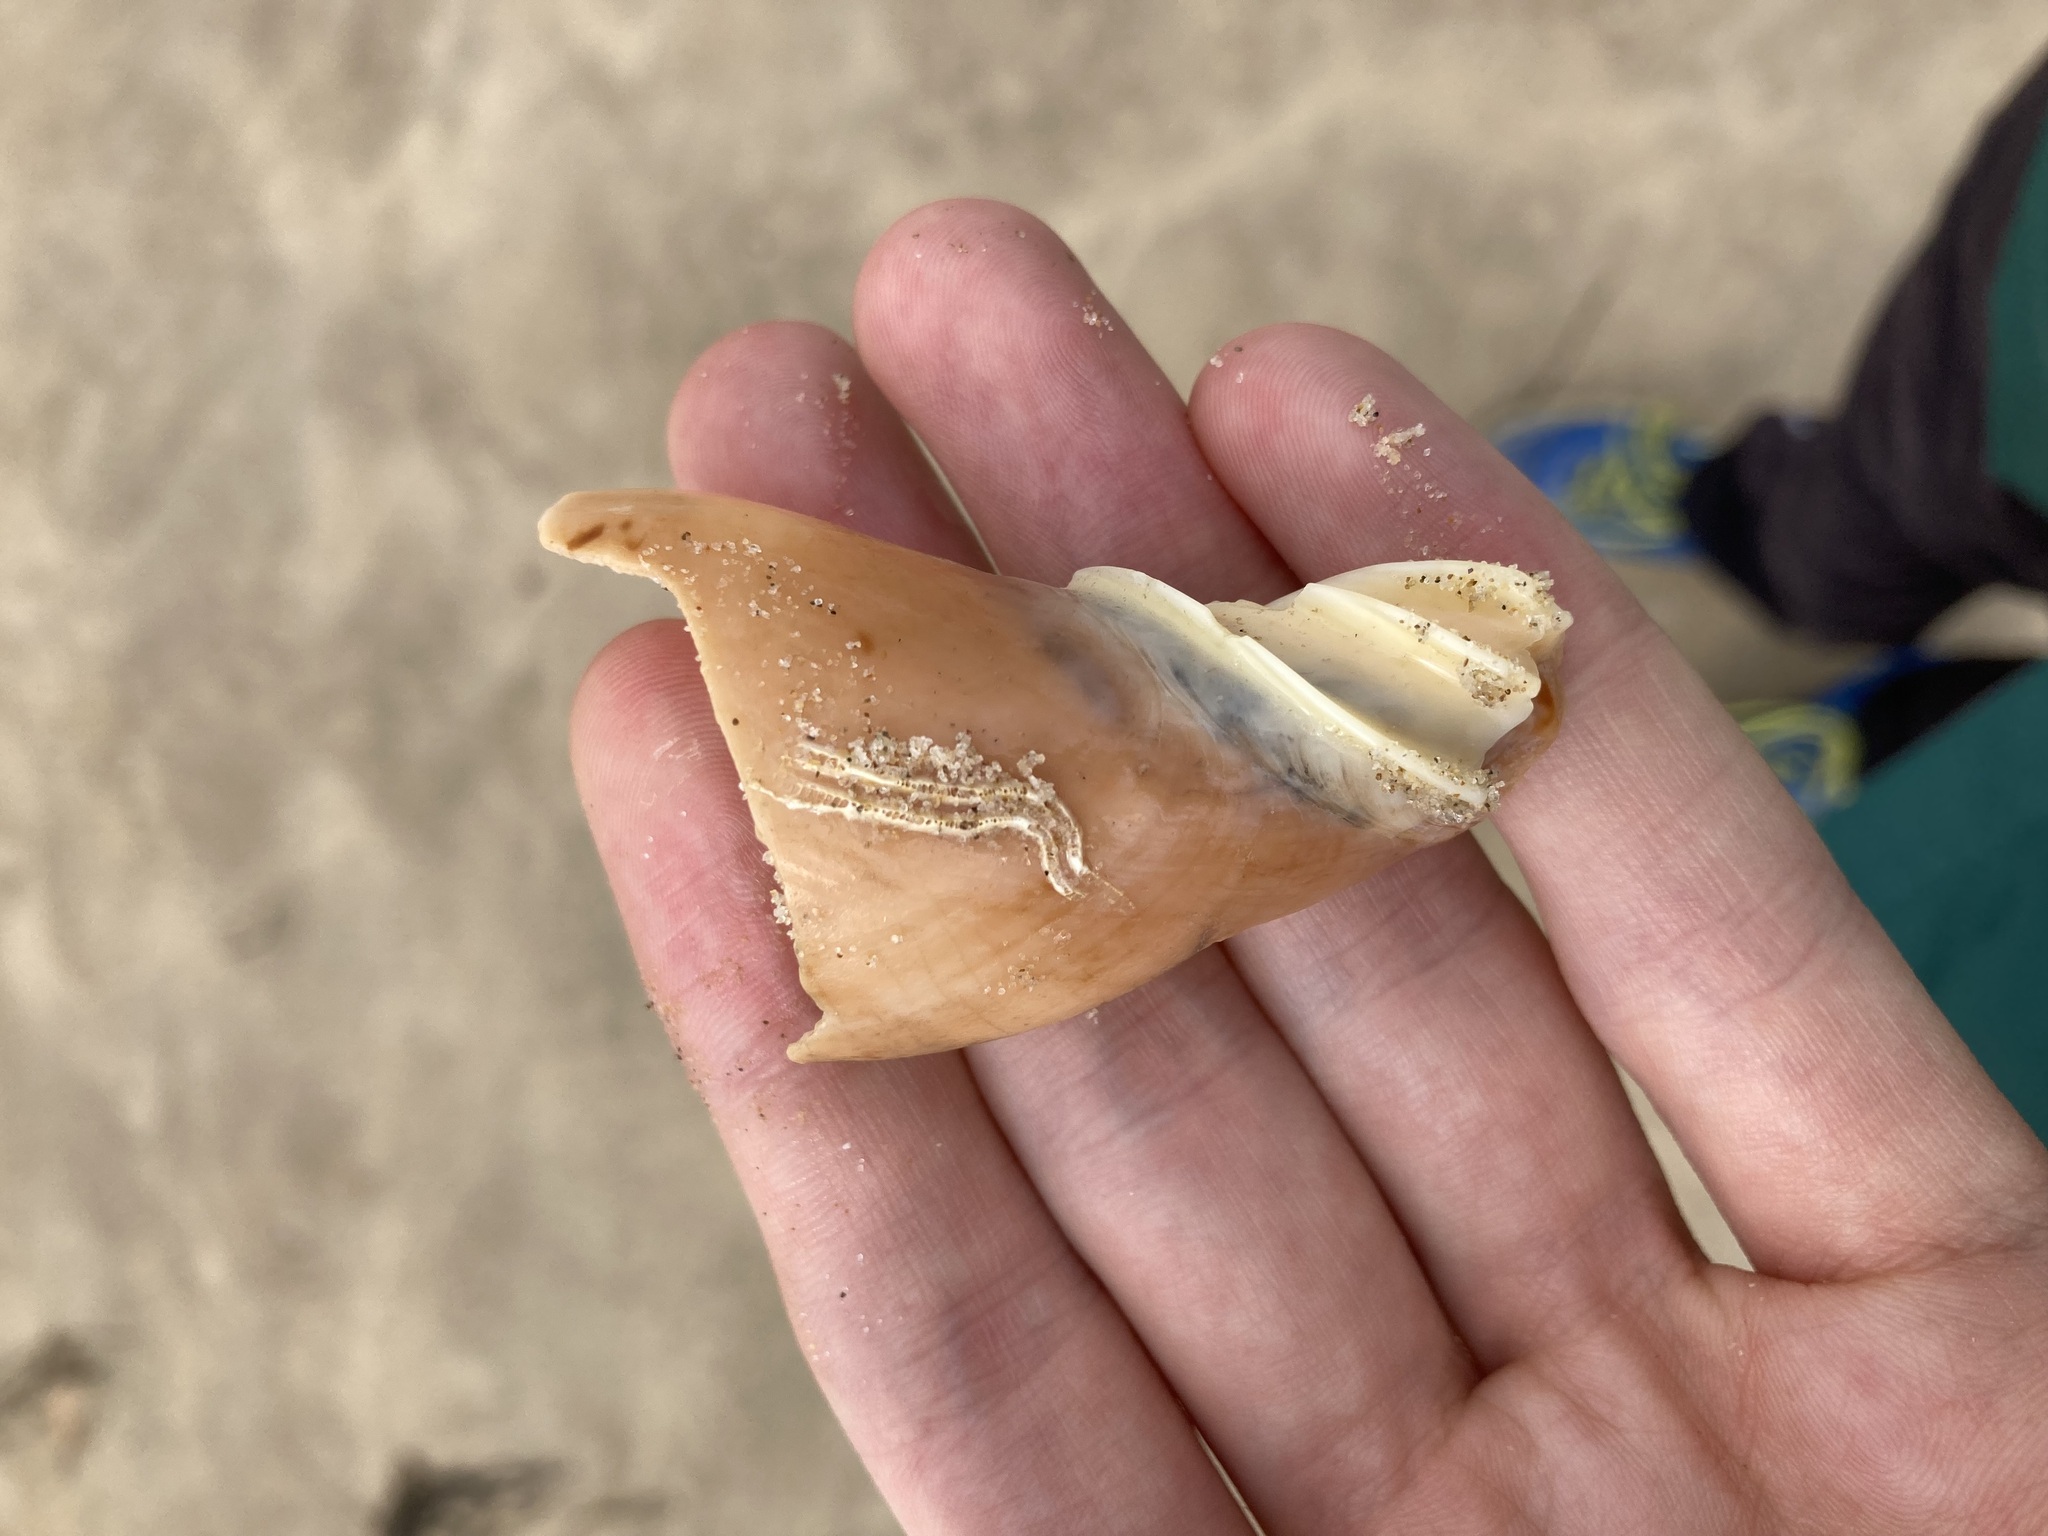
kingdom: Animalia
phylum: Mollusca
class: Gastropoda
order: Neogastropoda
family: Volutidae
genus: Cymbiola
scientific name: Cymbiola magnifica
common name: Magnificent volute
